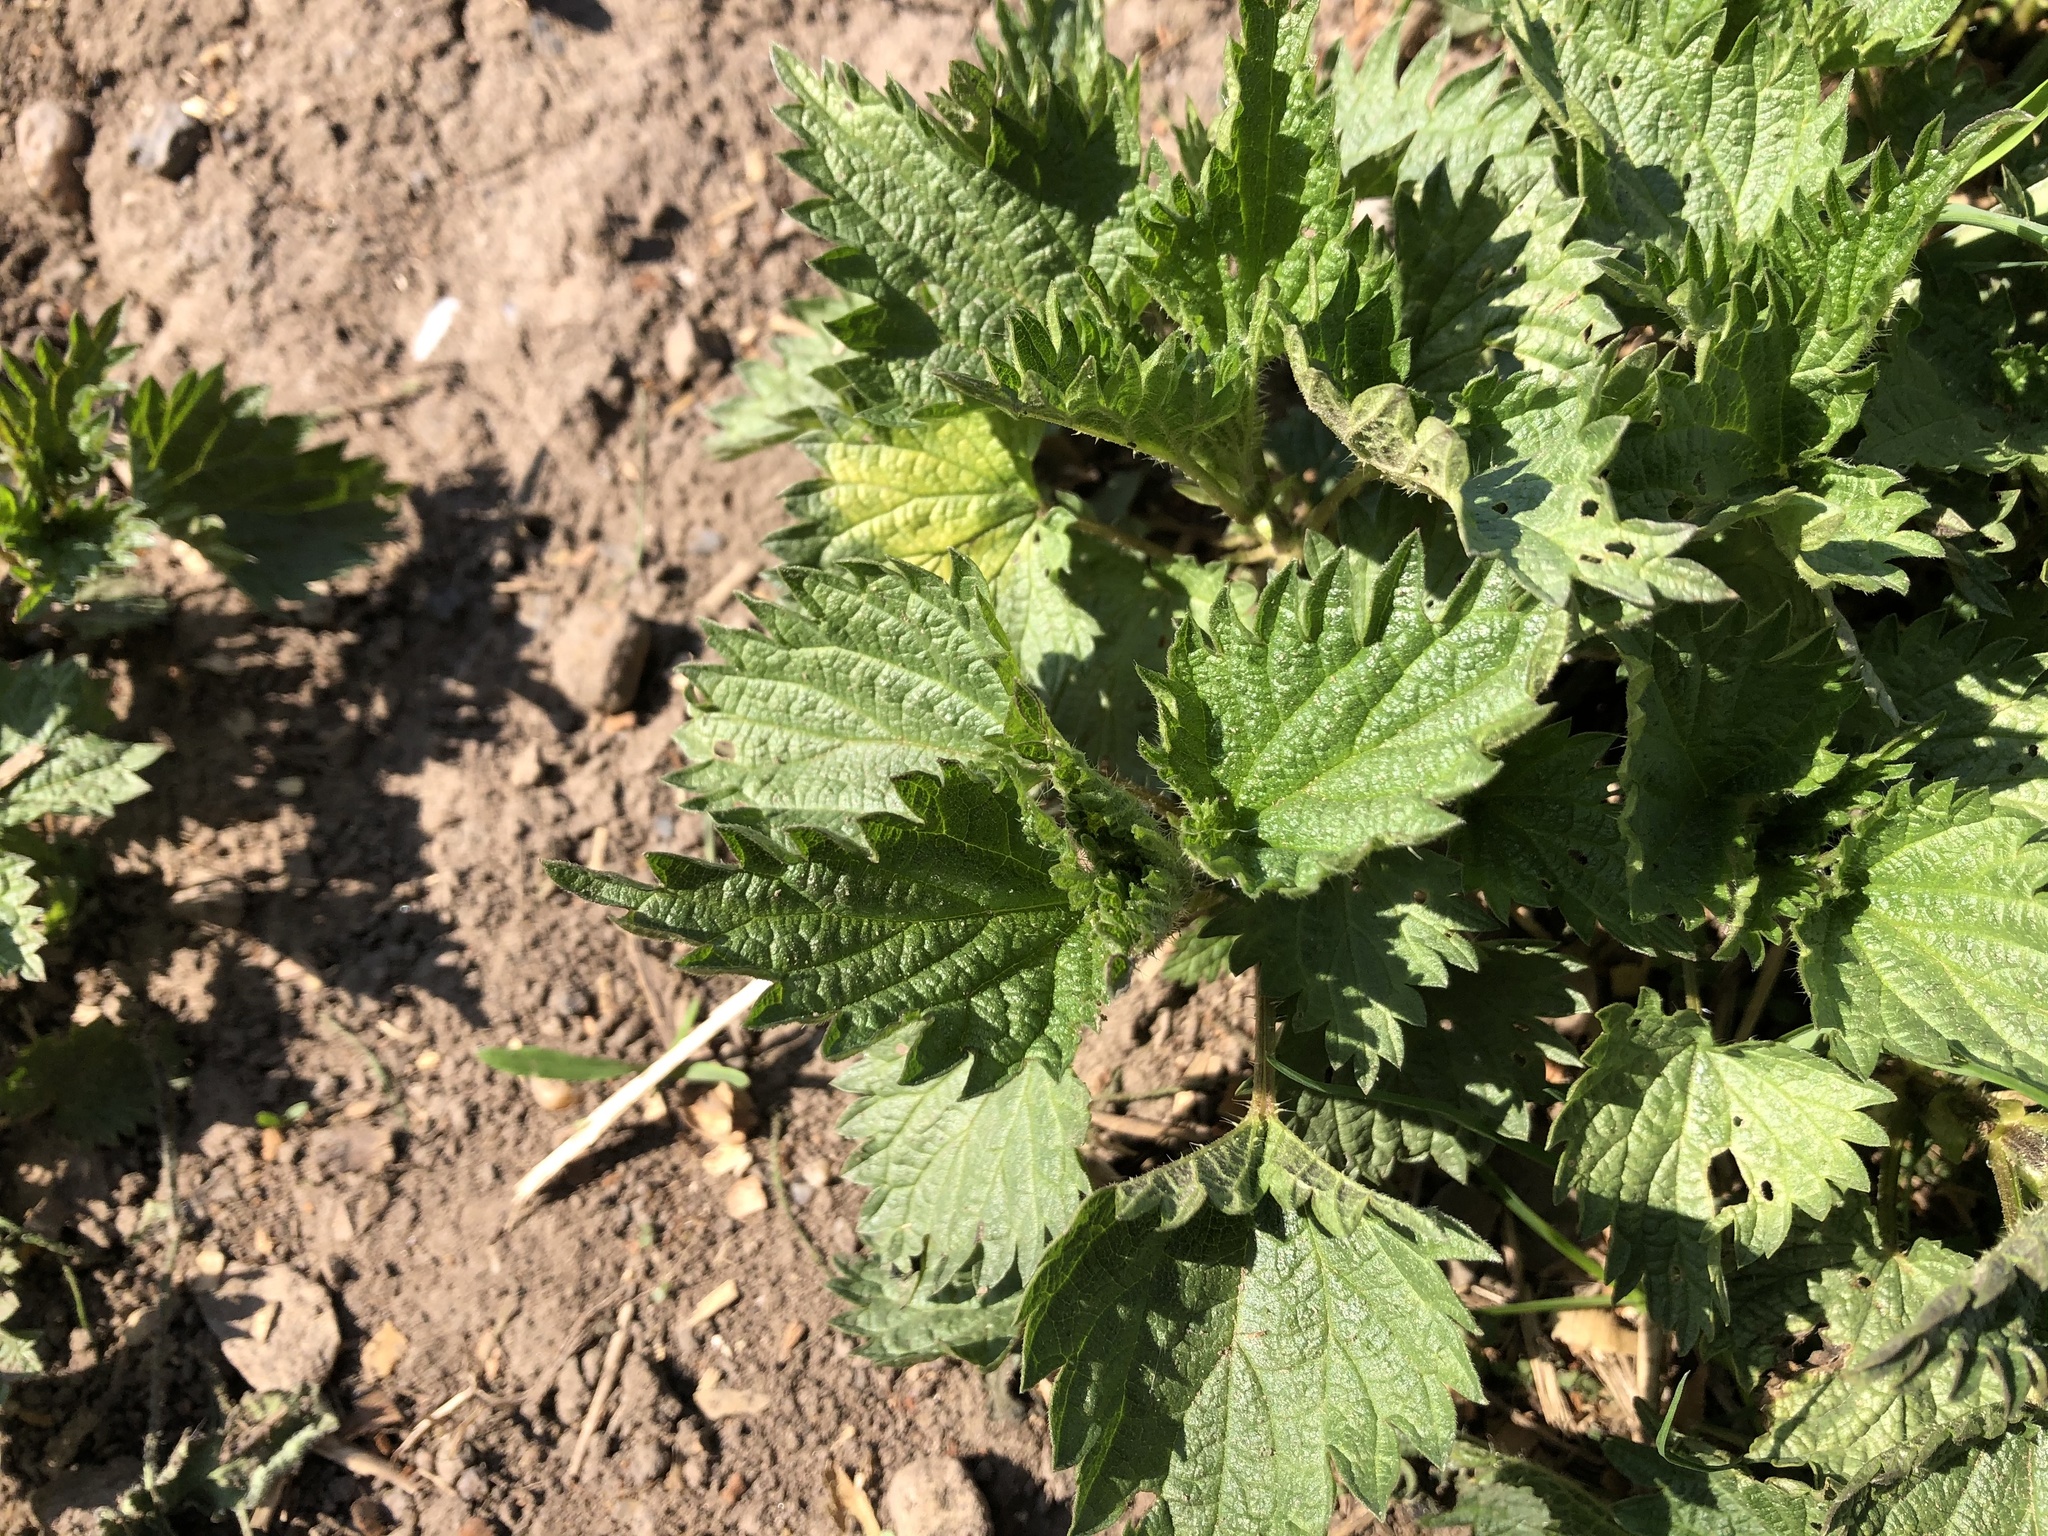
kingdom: Plantae
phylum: Tracheophyta
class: Magnoliopsida
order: Rosales
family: Urticaceae
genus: Urtica
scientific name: Urtica dioica
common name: Common nettle
